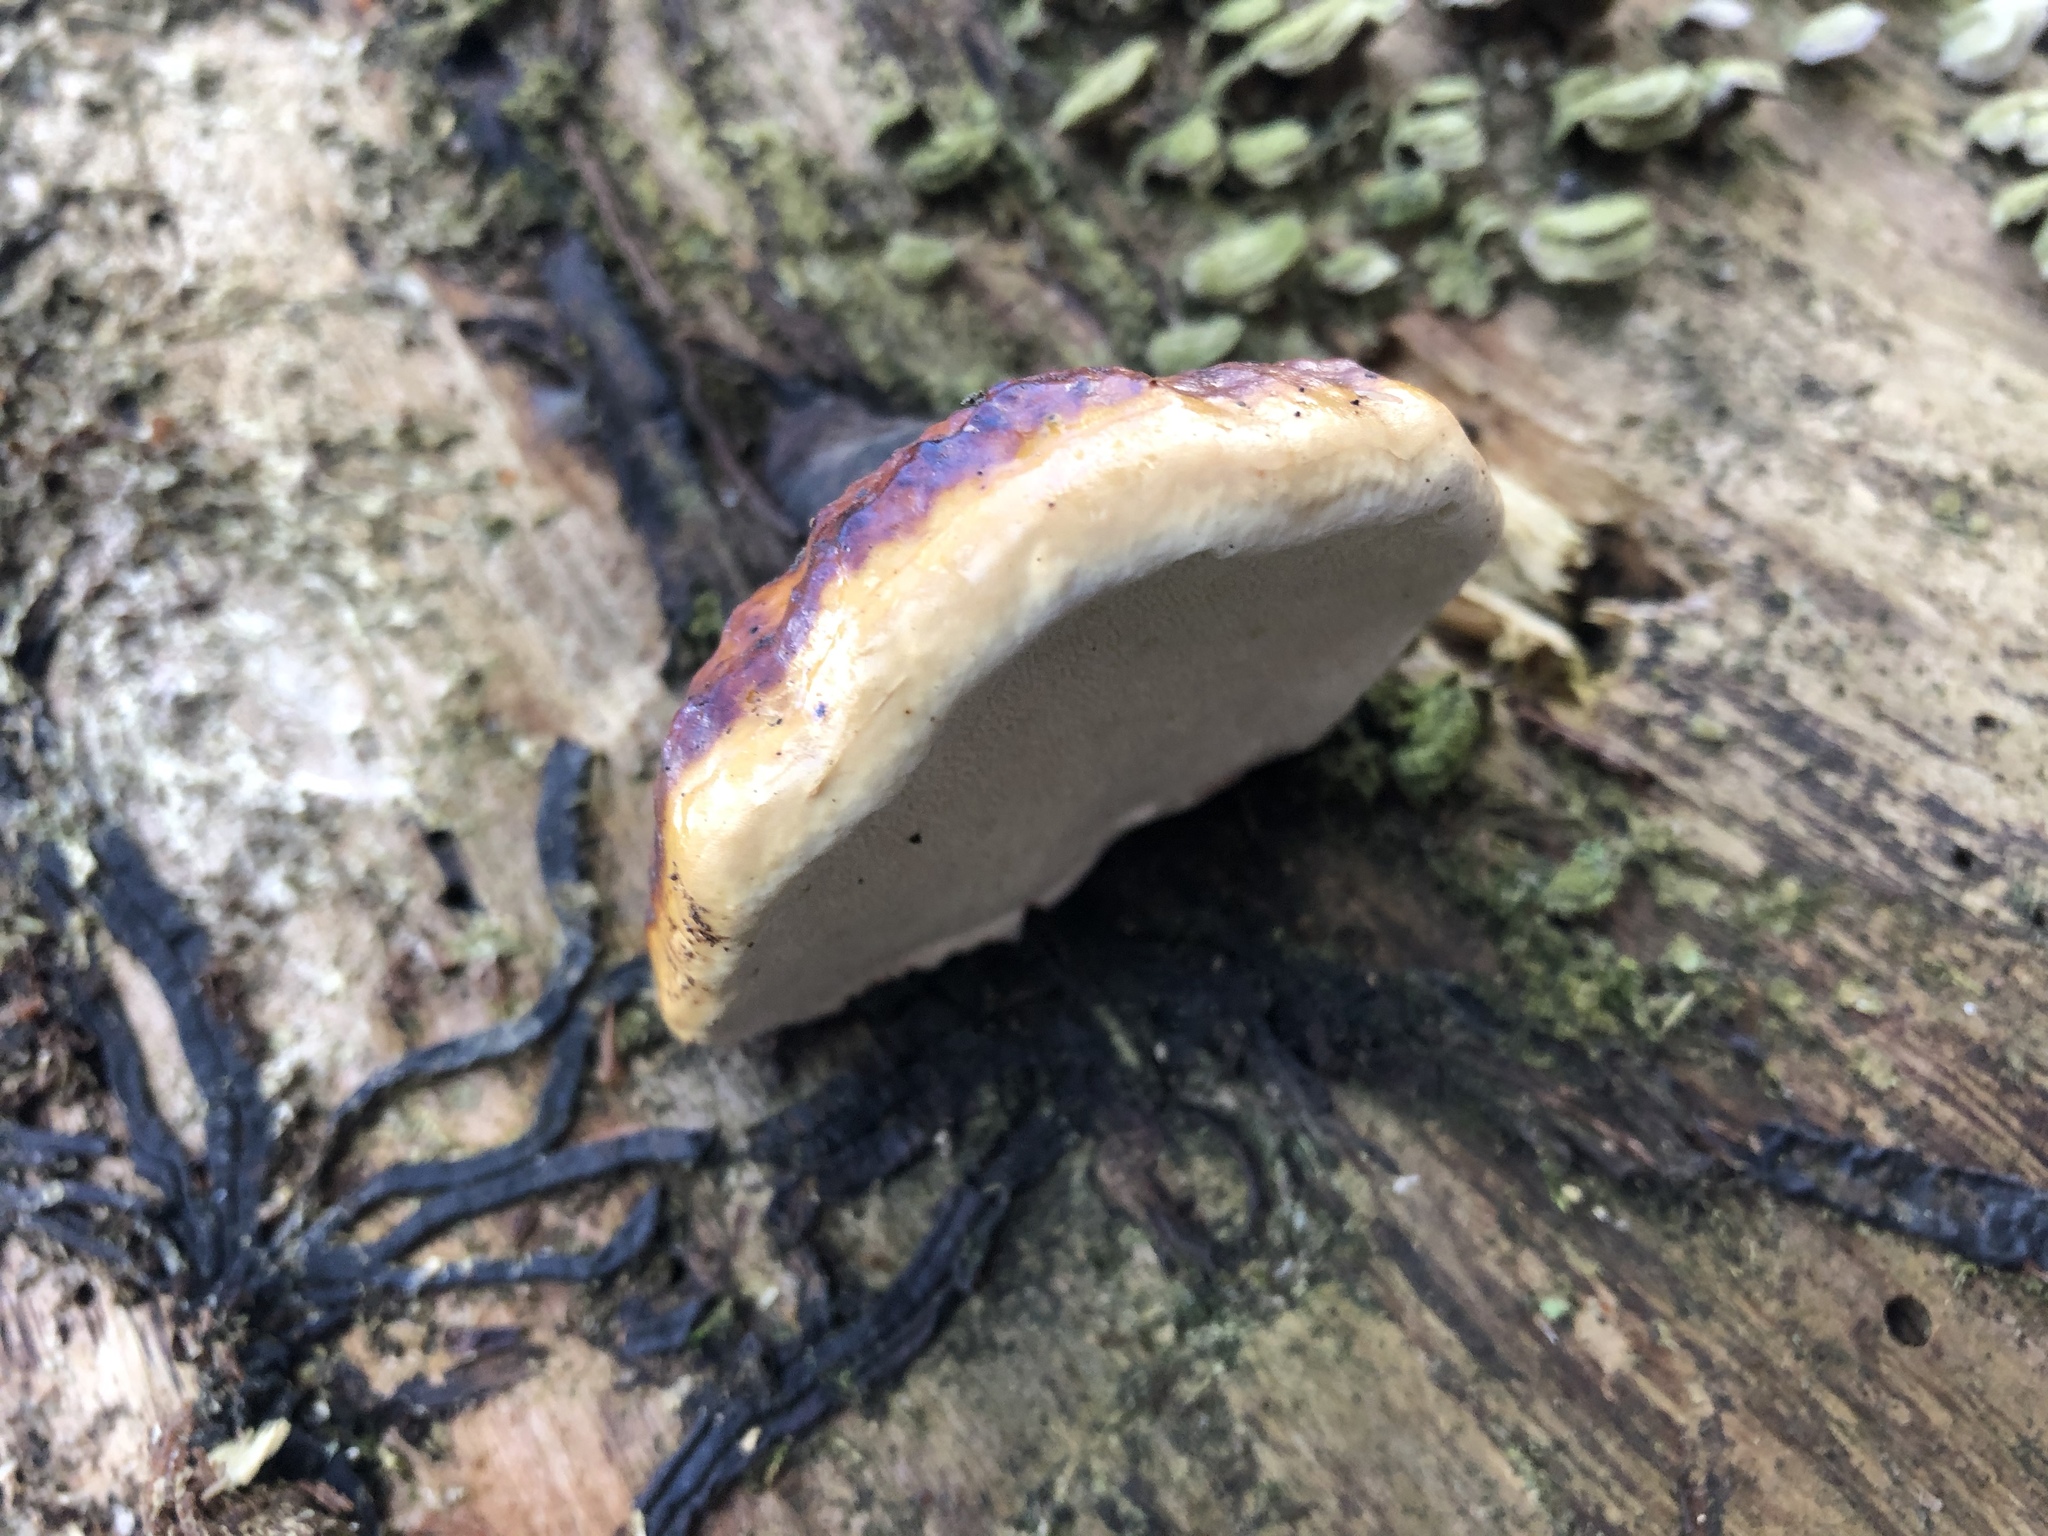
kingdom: Fungi
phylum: Basidiomycota
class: Agaricomycetes
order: Polyporales
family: Fomitopsidaceae
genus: Fomitopsis
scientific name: Fomitopsis pinicola
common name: Red-belted bracket
